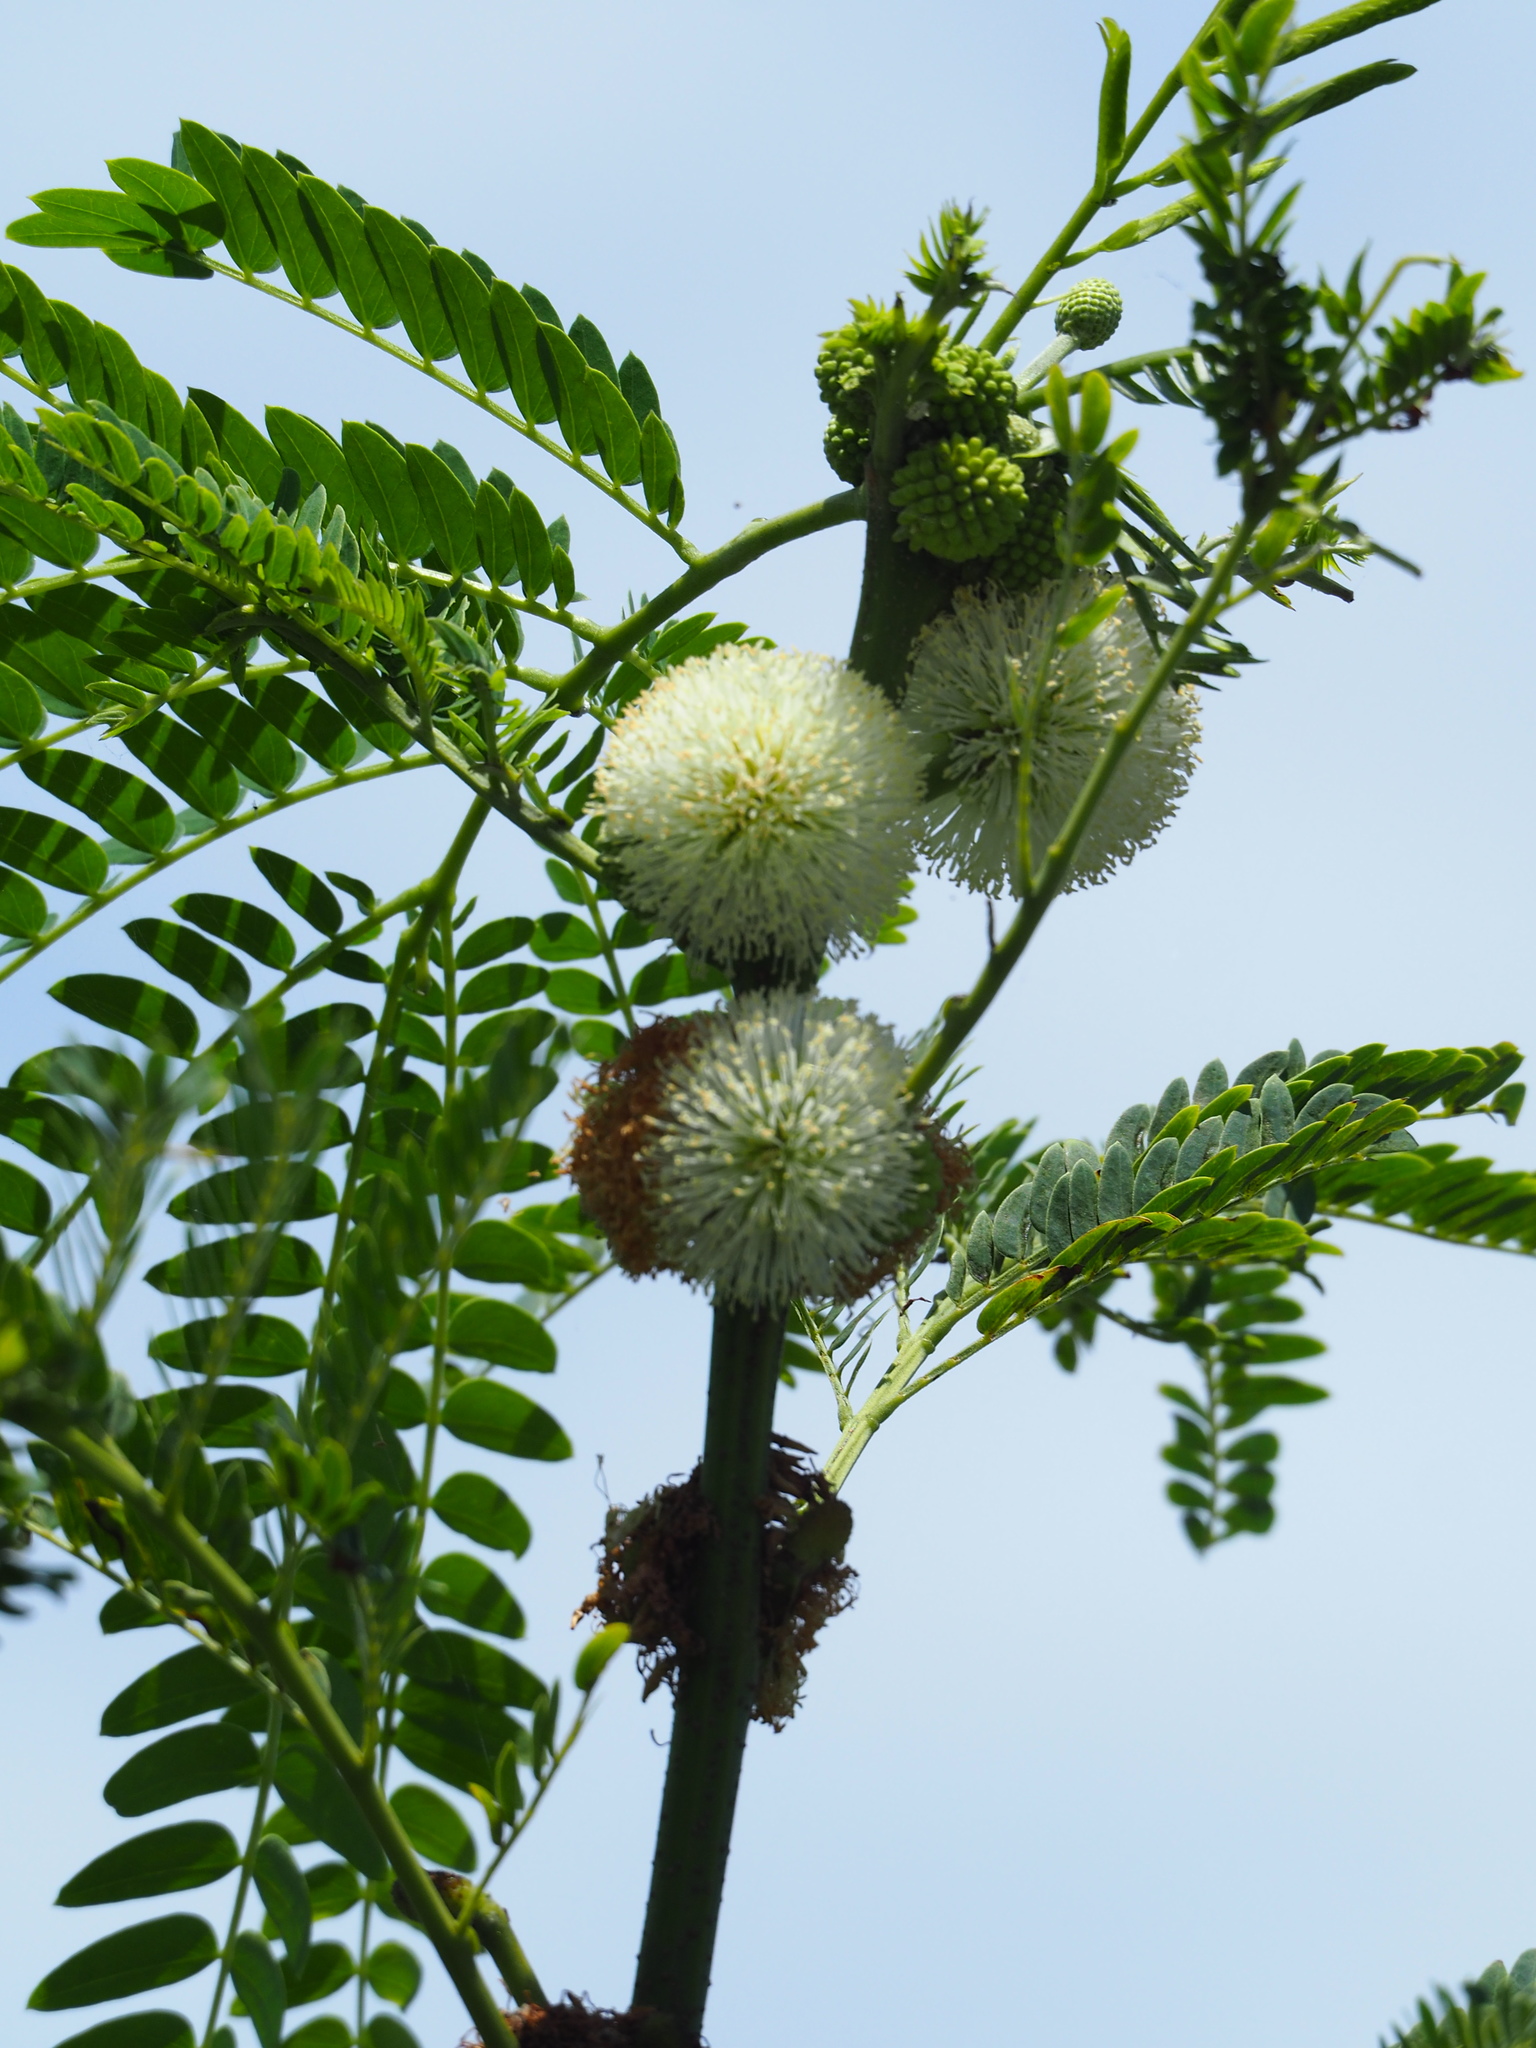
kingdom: Plantae
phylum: Tracheophyta
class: Magnoliopsida
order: Fabales
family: Fabaceae
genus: Leucaena
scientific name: Leucaena leucocephala
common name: White leadtree
